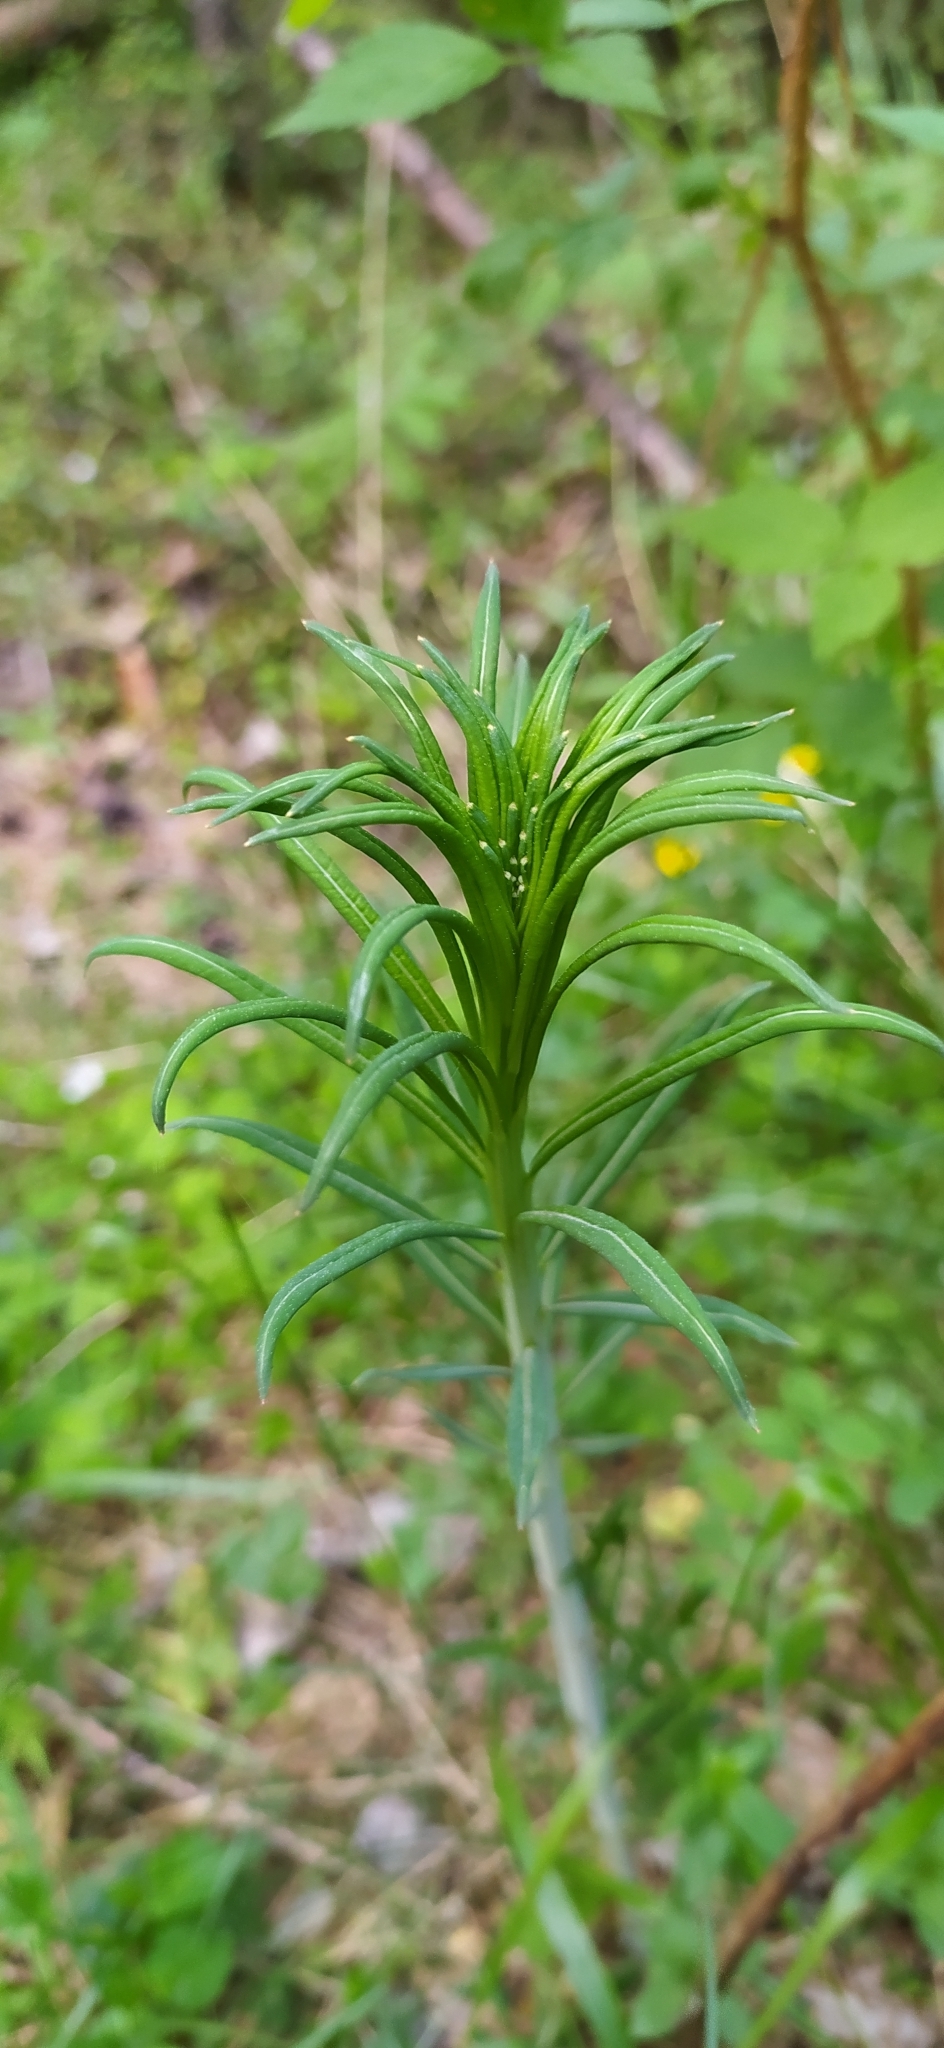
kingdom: Plantae
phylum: Tracheophyta
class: Magnoliopsida
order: Myrtales
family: Onagraceae
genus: Chamaenerion
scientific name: Chamaenerion angustifolium
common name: Fireweed
